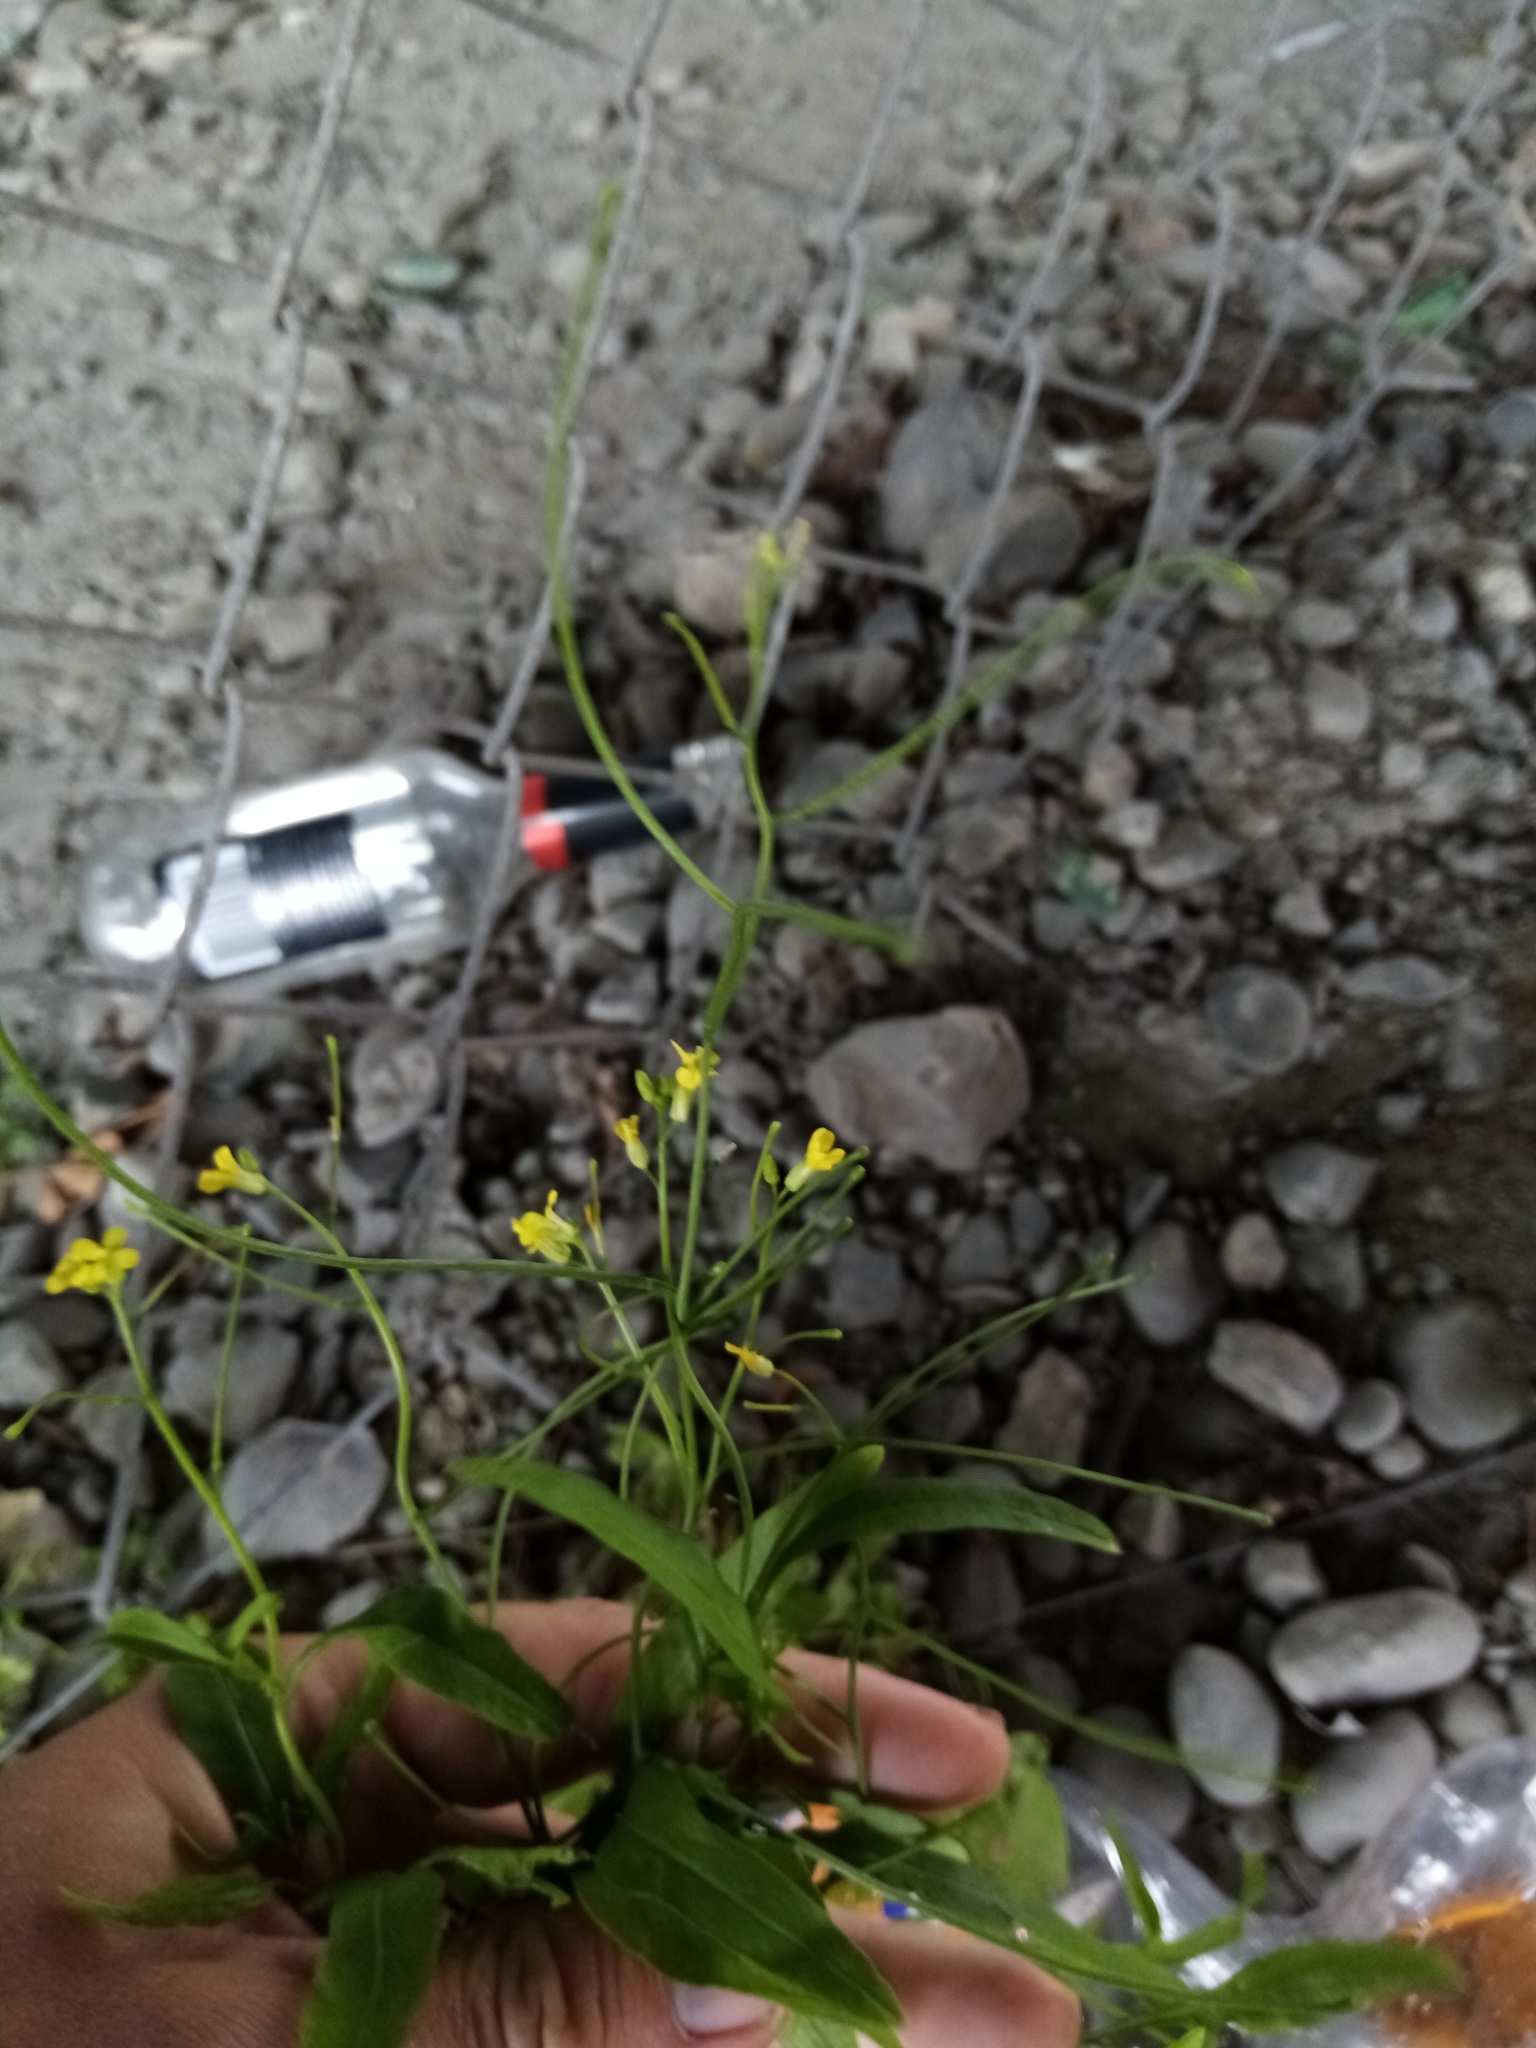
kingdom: Plantae
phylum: Tracheophyta
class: Magnoliopsida
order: Brassicales
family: Brassicaceae
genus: Sisymbrium
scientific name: Sisymbrium orientale
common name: Eastern rocket
